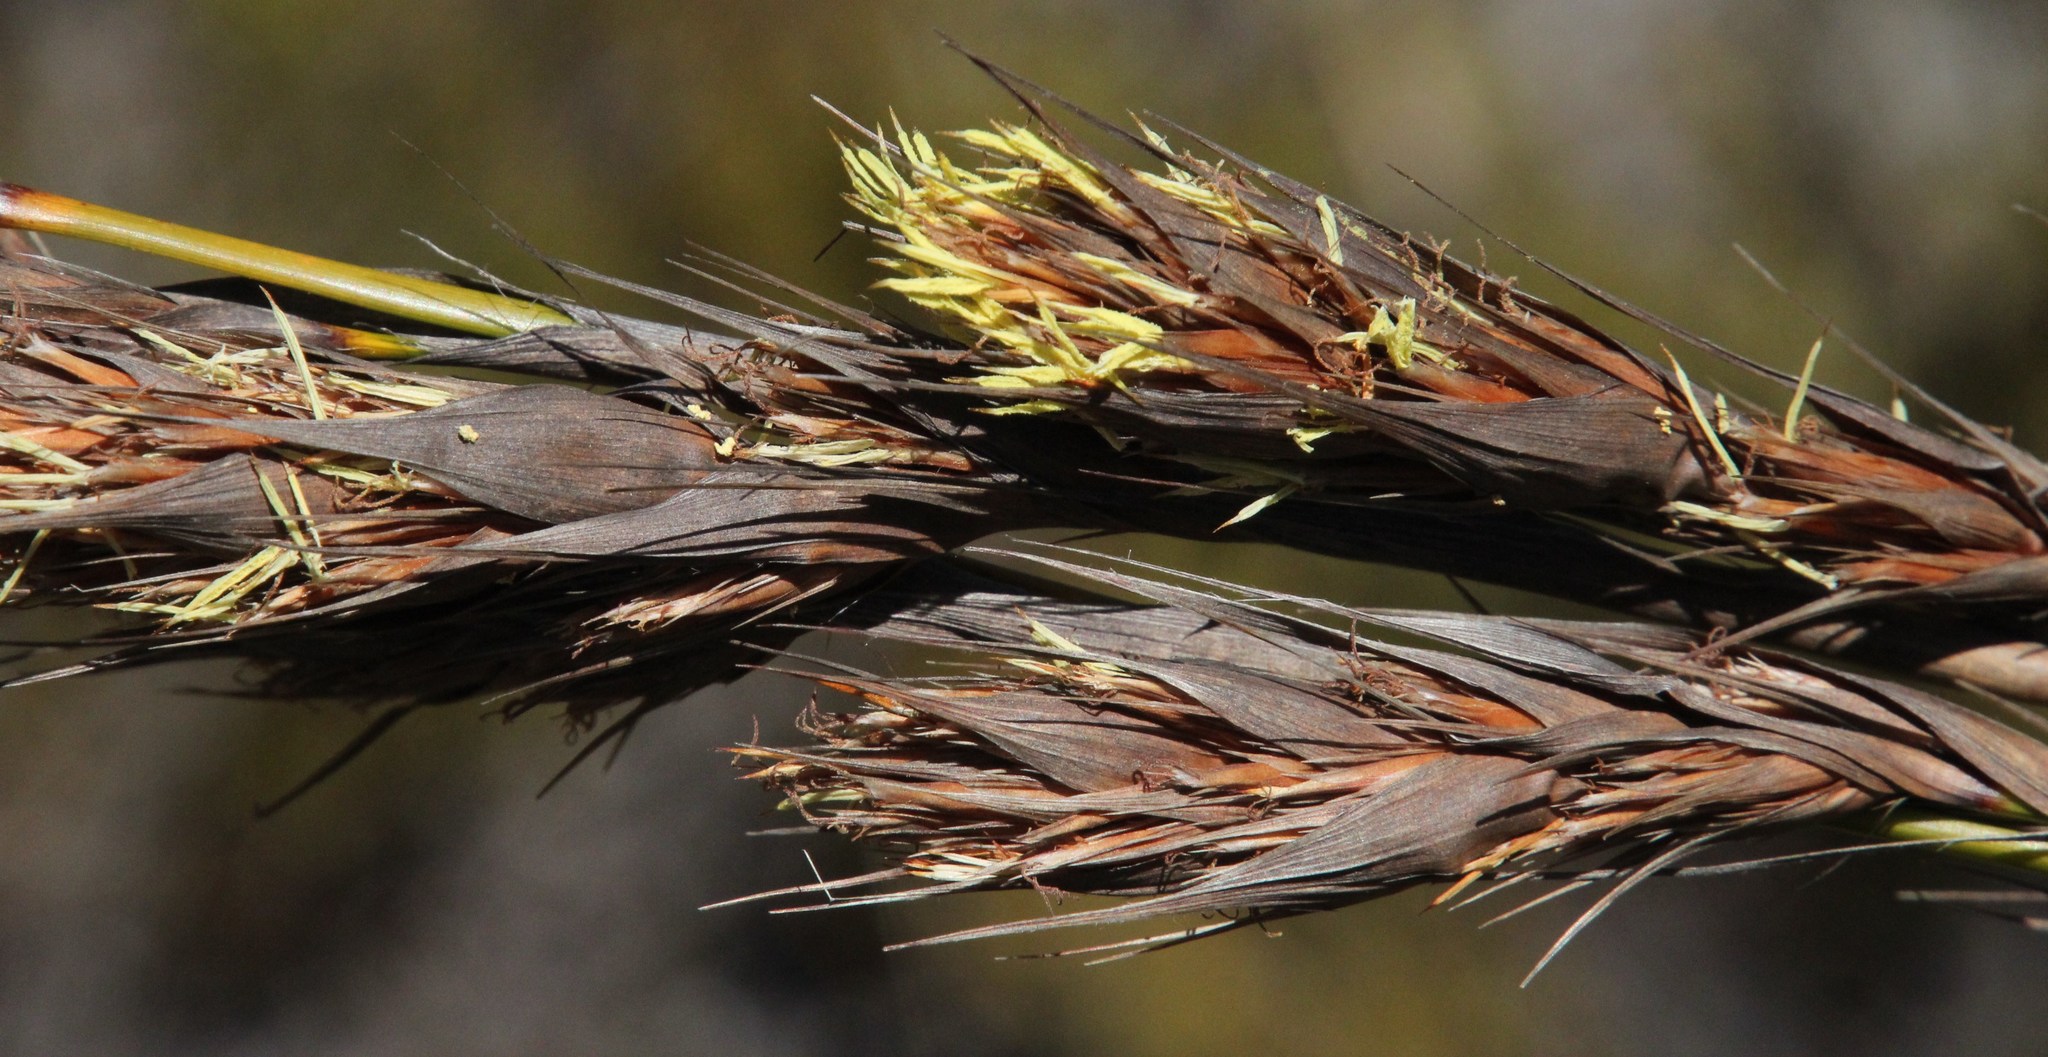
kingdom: Plantae
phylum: Tracheophyta
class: Liliopsida
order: Poales
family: Cyperaceae
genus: Tetraria
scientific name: Tetraria bromoides
